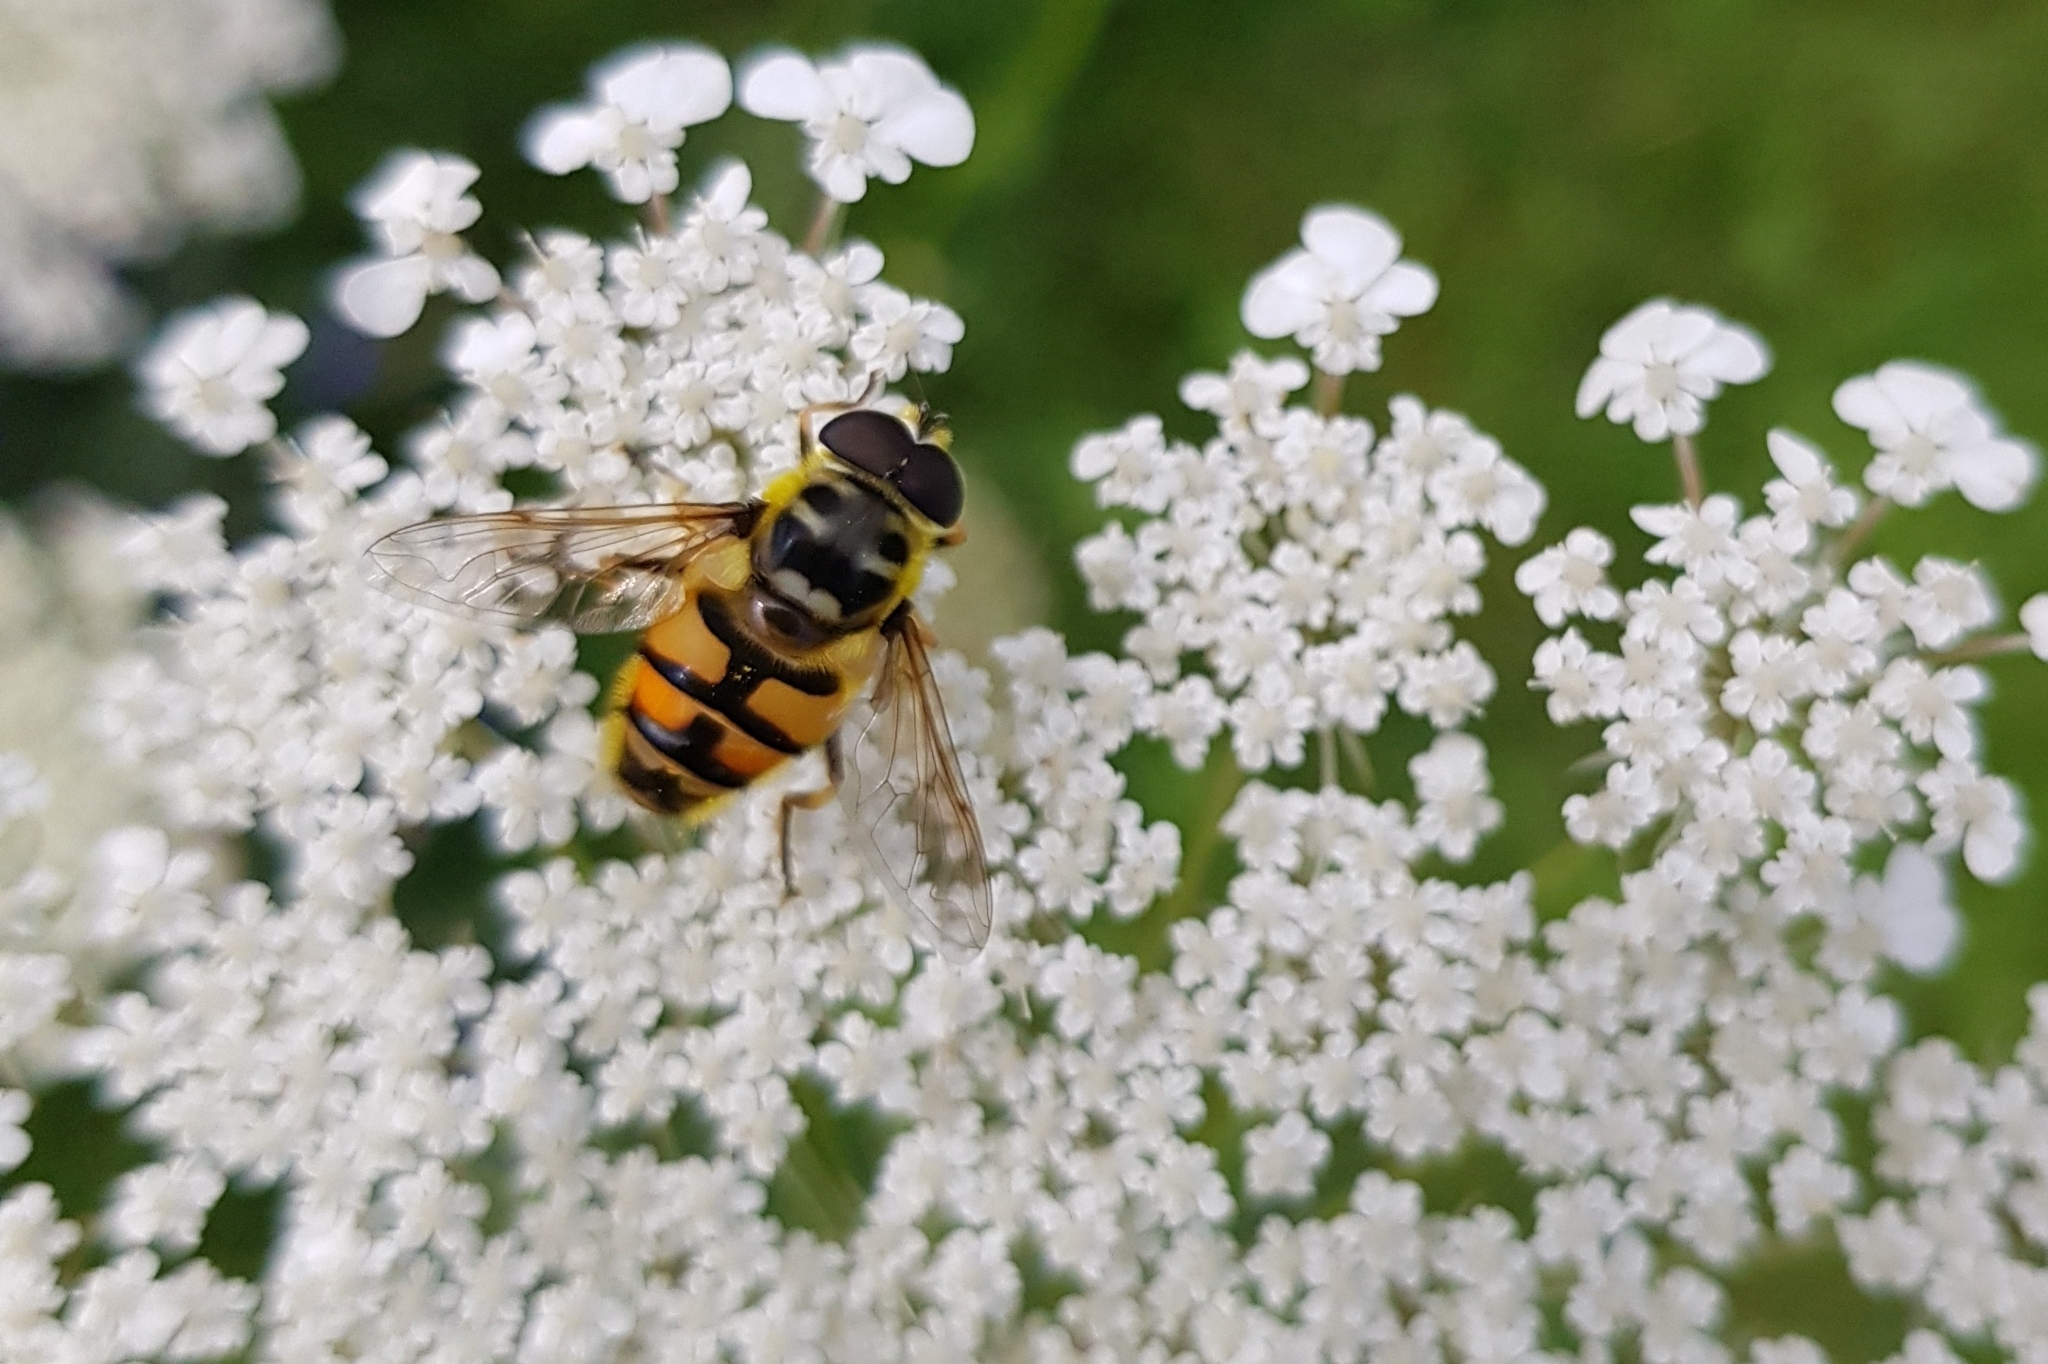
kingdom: Animalia
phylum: Arthropoda
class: Insecta
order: Diptera
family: Syrphidae
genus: Myathropa
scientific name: Myathropa florea
